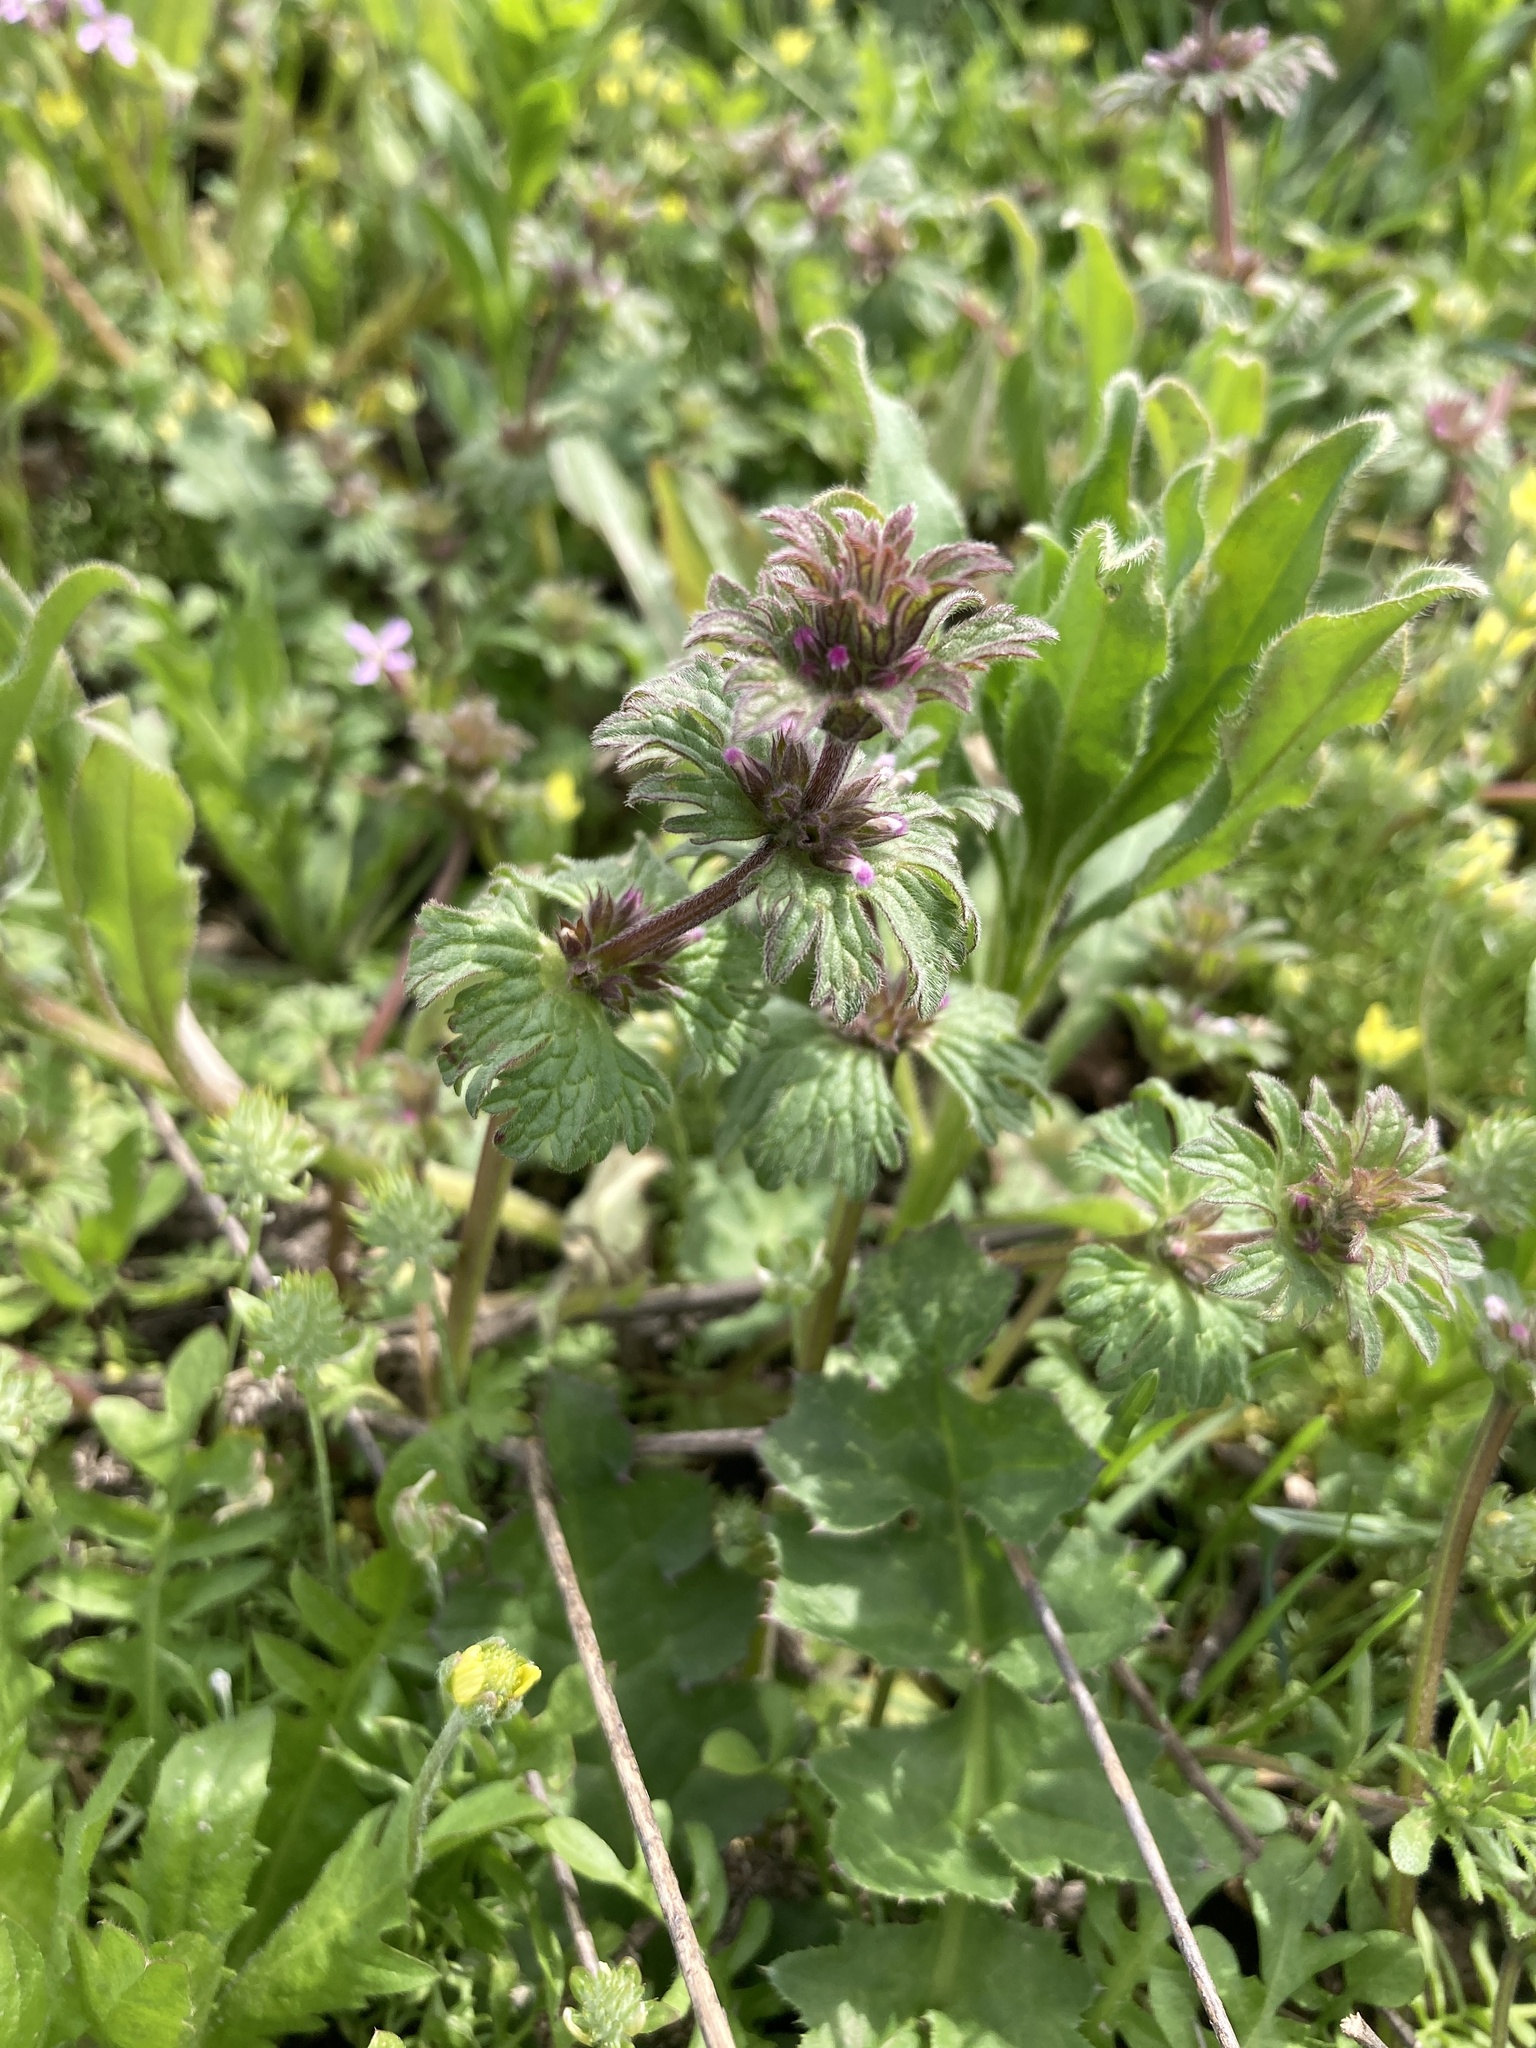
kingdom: Plantae
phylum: Tracheophyta
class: Magnoliopsida
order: Lamiales
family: Lamiaceae
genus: Lamium
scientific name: Lamium amplexicaule
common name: Henbit dead-nettle
